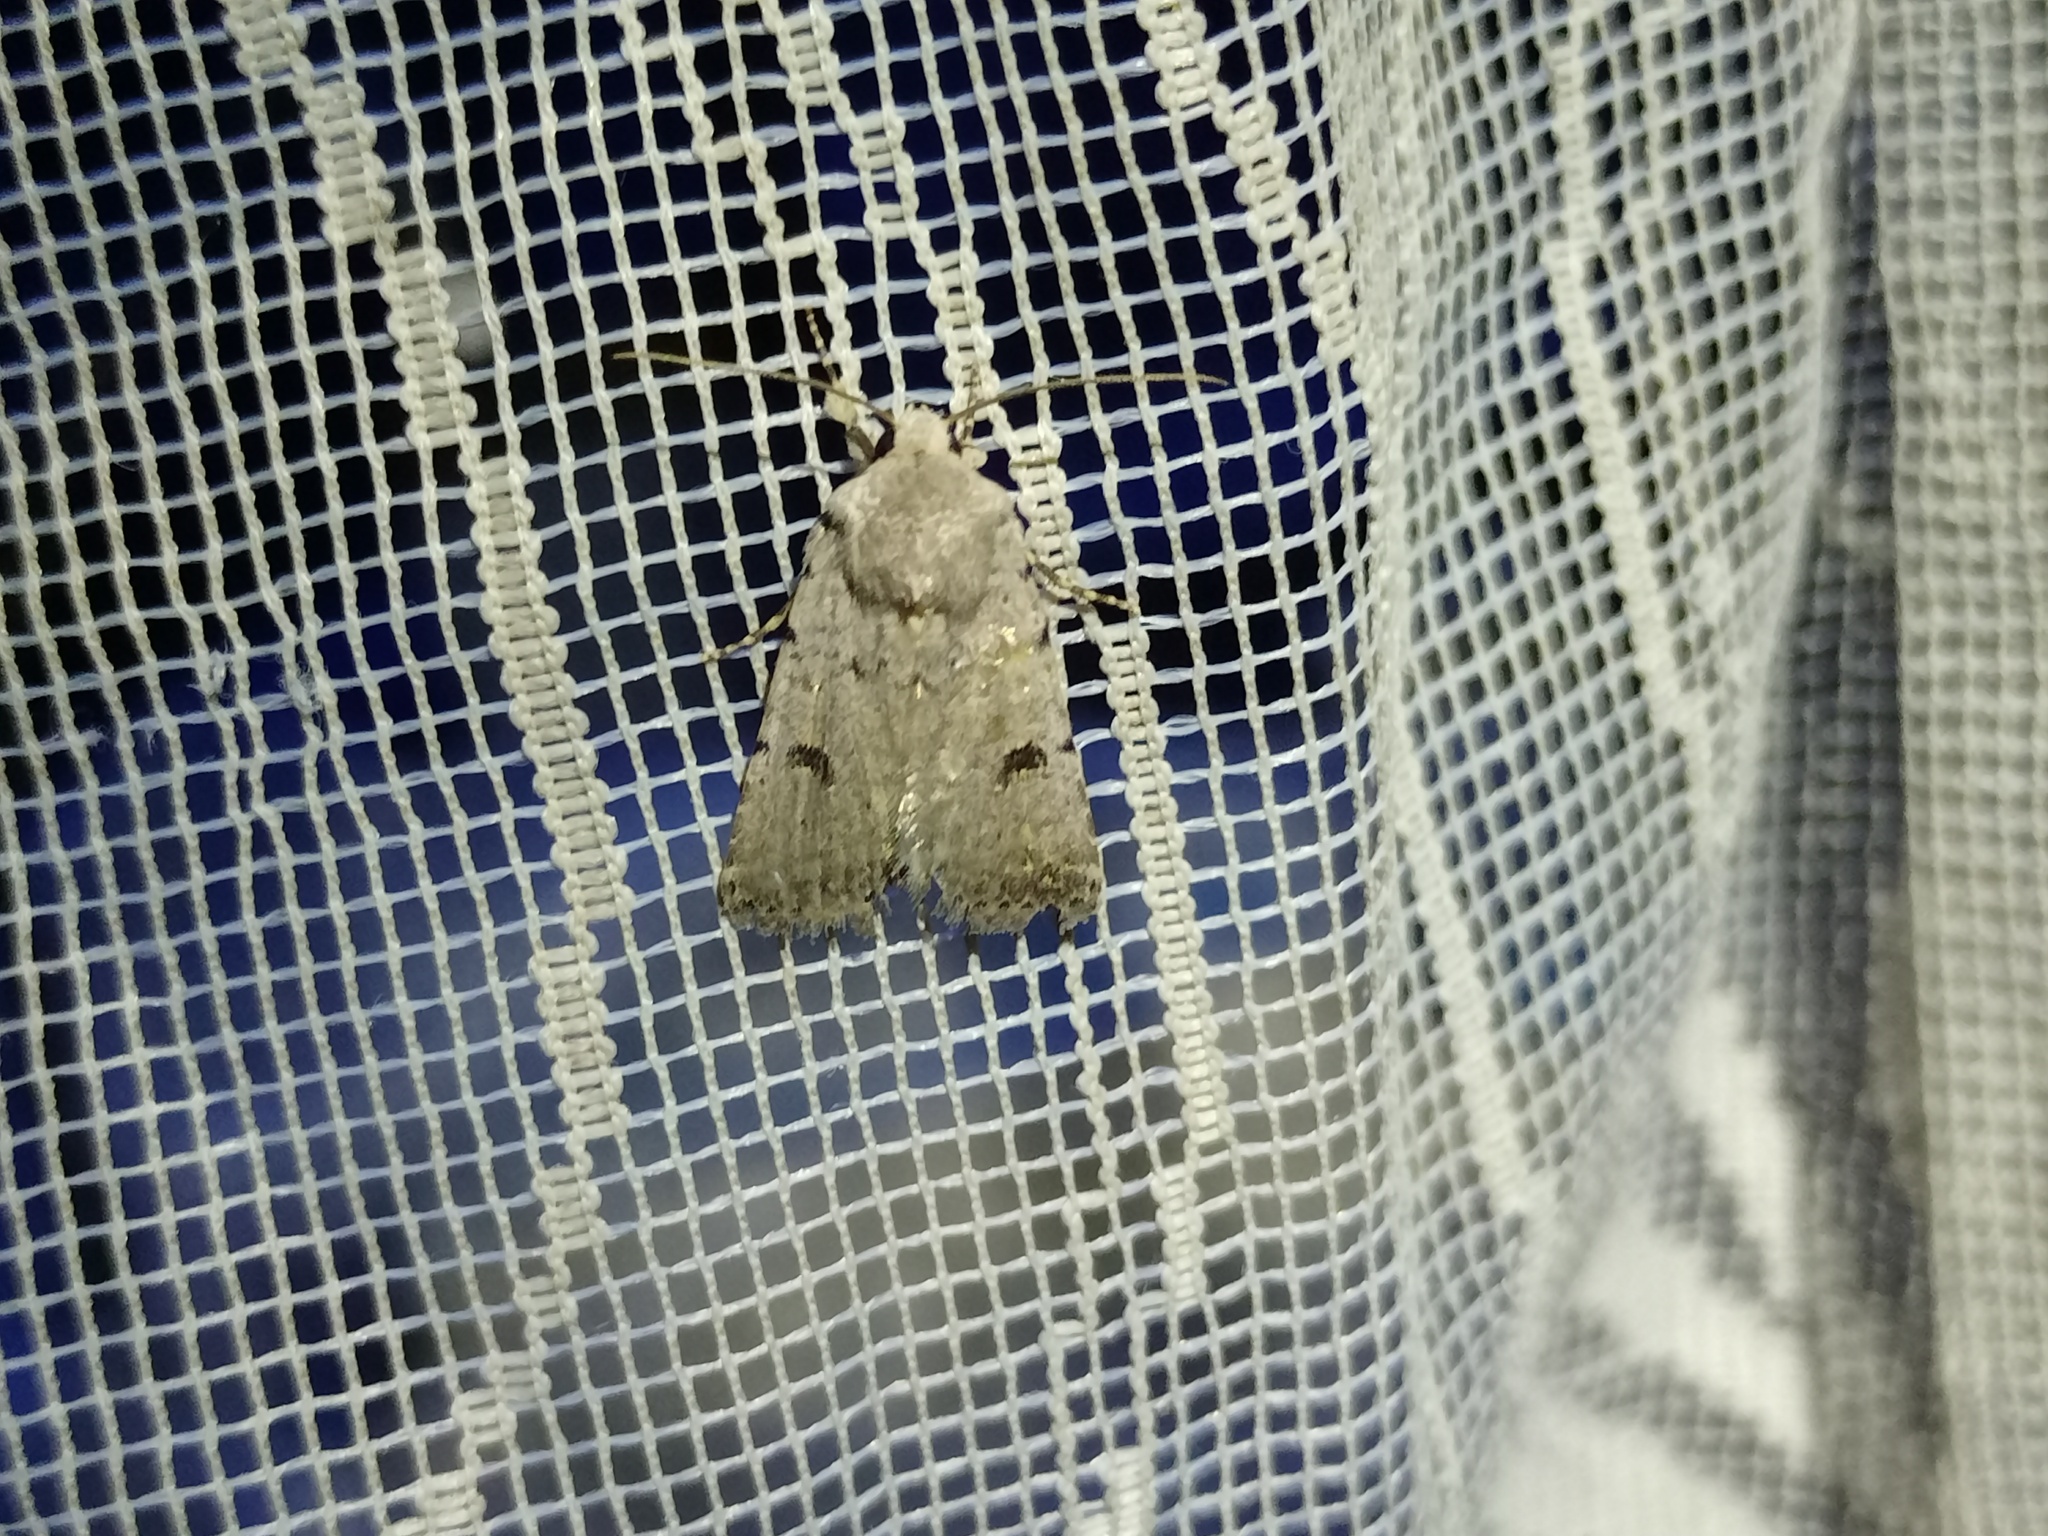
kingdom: Animalia
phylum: Arthropoda
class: Insecta
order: Lepidoptera
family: Noctuidae
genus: Caradrina
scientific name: Caradrina rebeli
